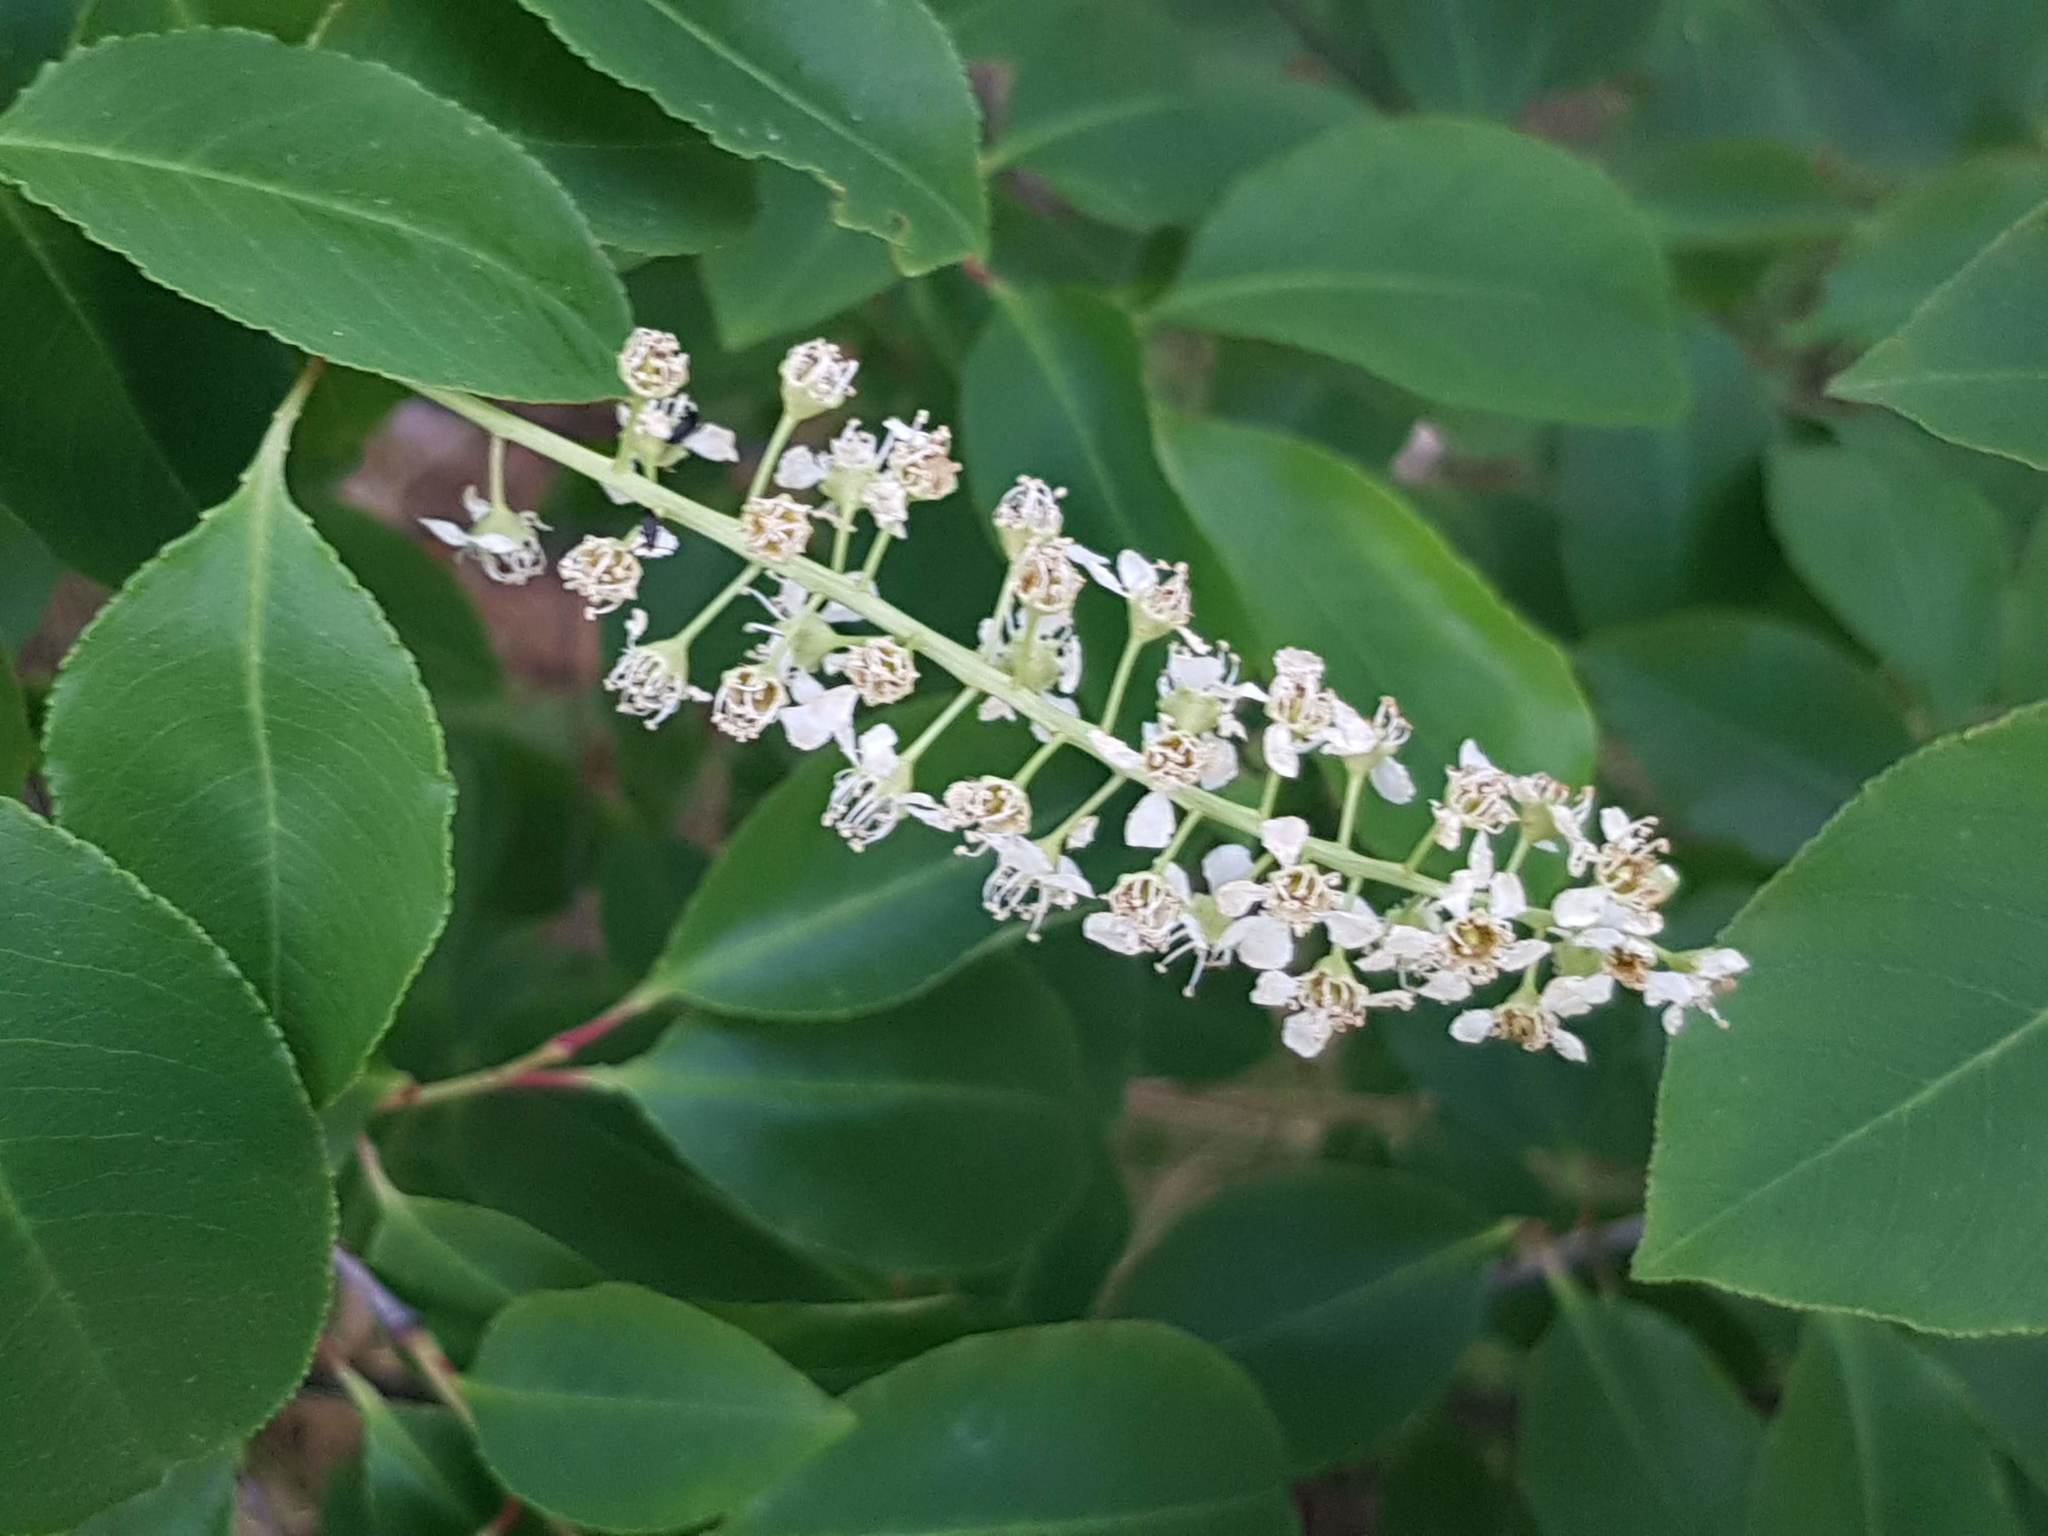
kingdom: Plantae
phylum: Tracheophyta
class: Magnoliopsida
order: Rosales
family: Rosaceae
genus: Prunus
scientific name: Prunus serotina
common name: Black cherry
